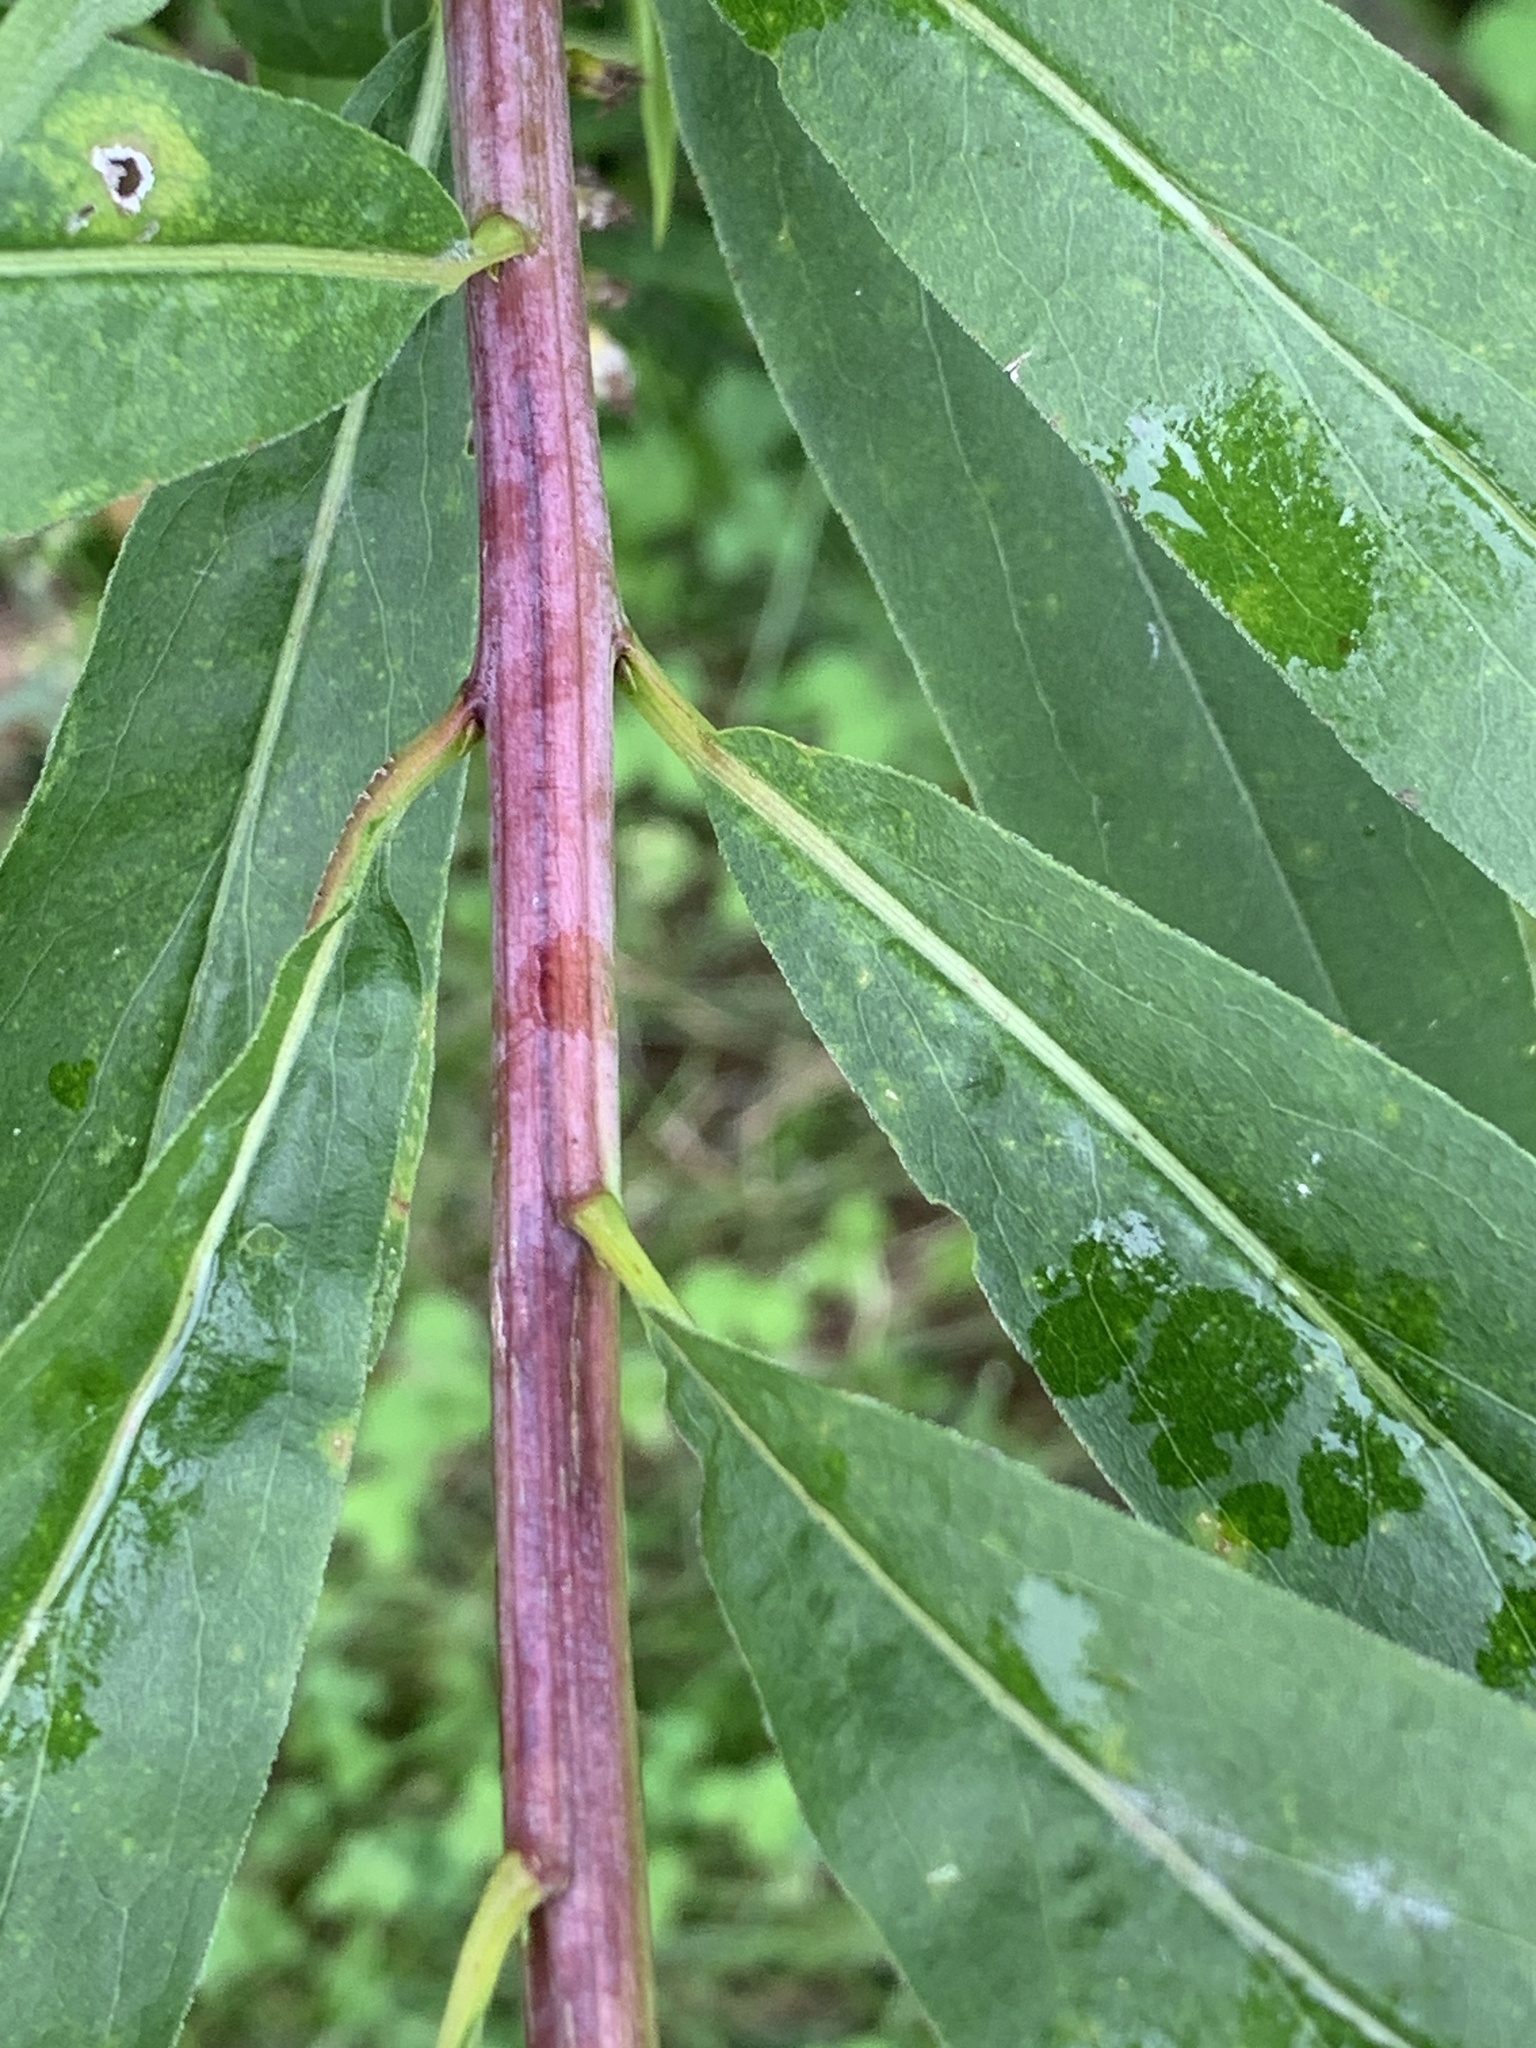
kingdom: Plantae
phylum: Tracheophyta
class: Magnoliopsida
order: Asterales
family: Asteraceae
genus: Solidago
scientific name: Solidago gigantea
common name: Giant goldenrod
